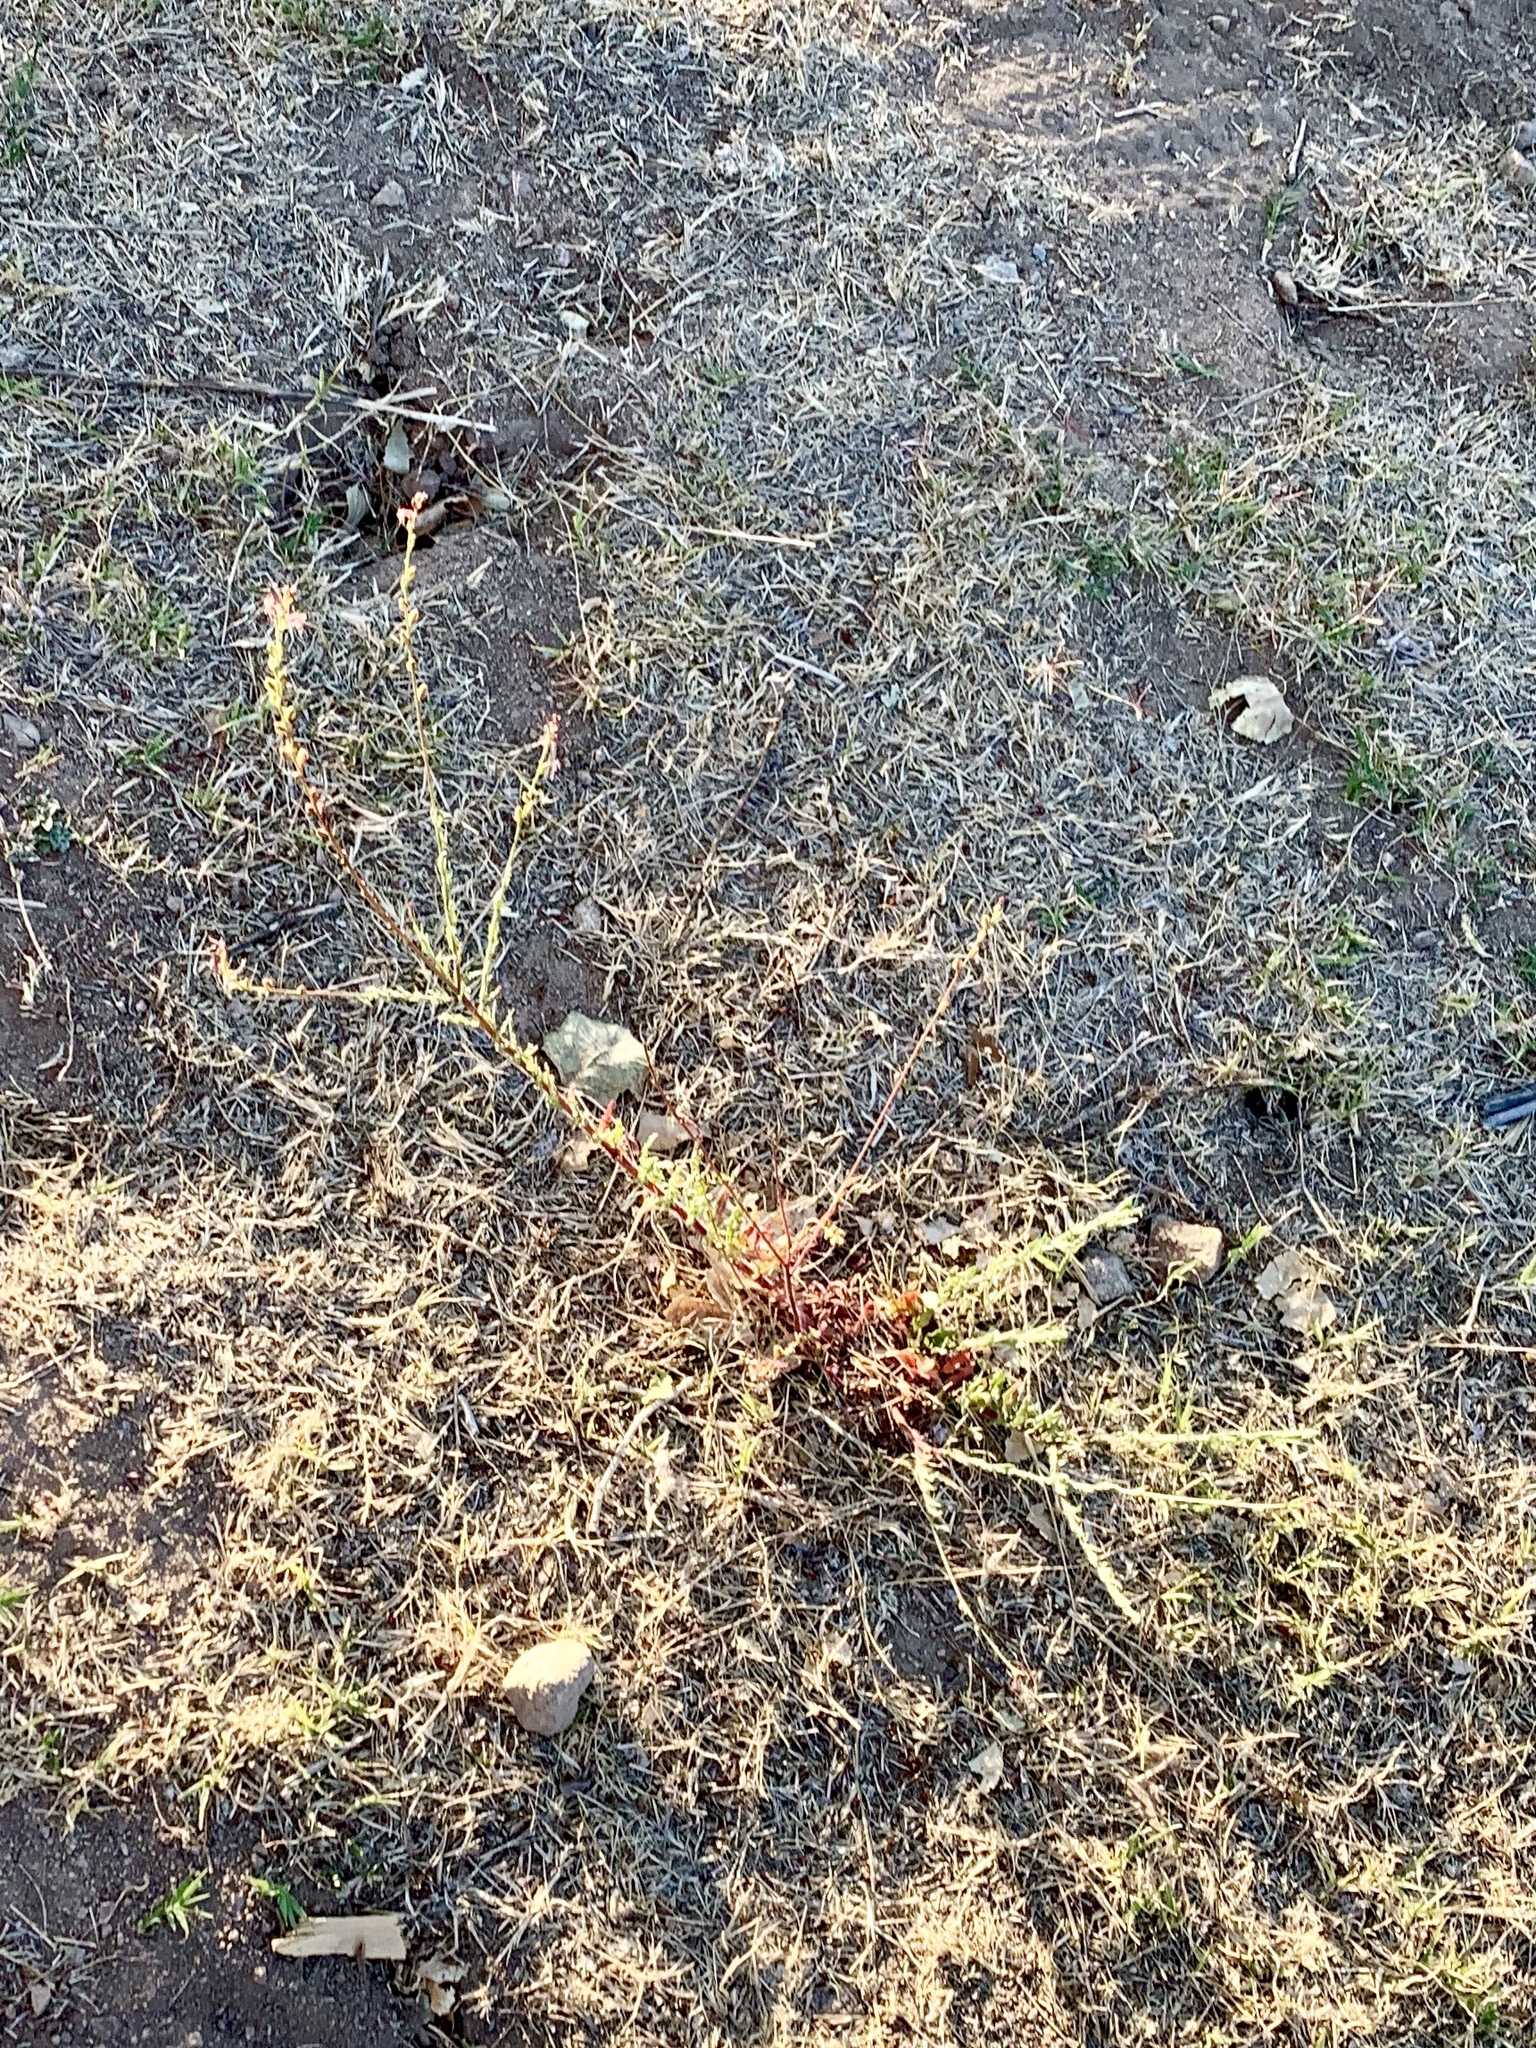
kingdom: Plantae
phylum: Tracheophyta
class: Magnoliopsida
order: Myrtales
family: Onagraceae
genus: Oenothera
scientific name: Oenothera suffrutescens
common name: Scarlet beeblossom
